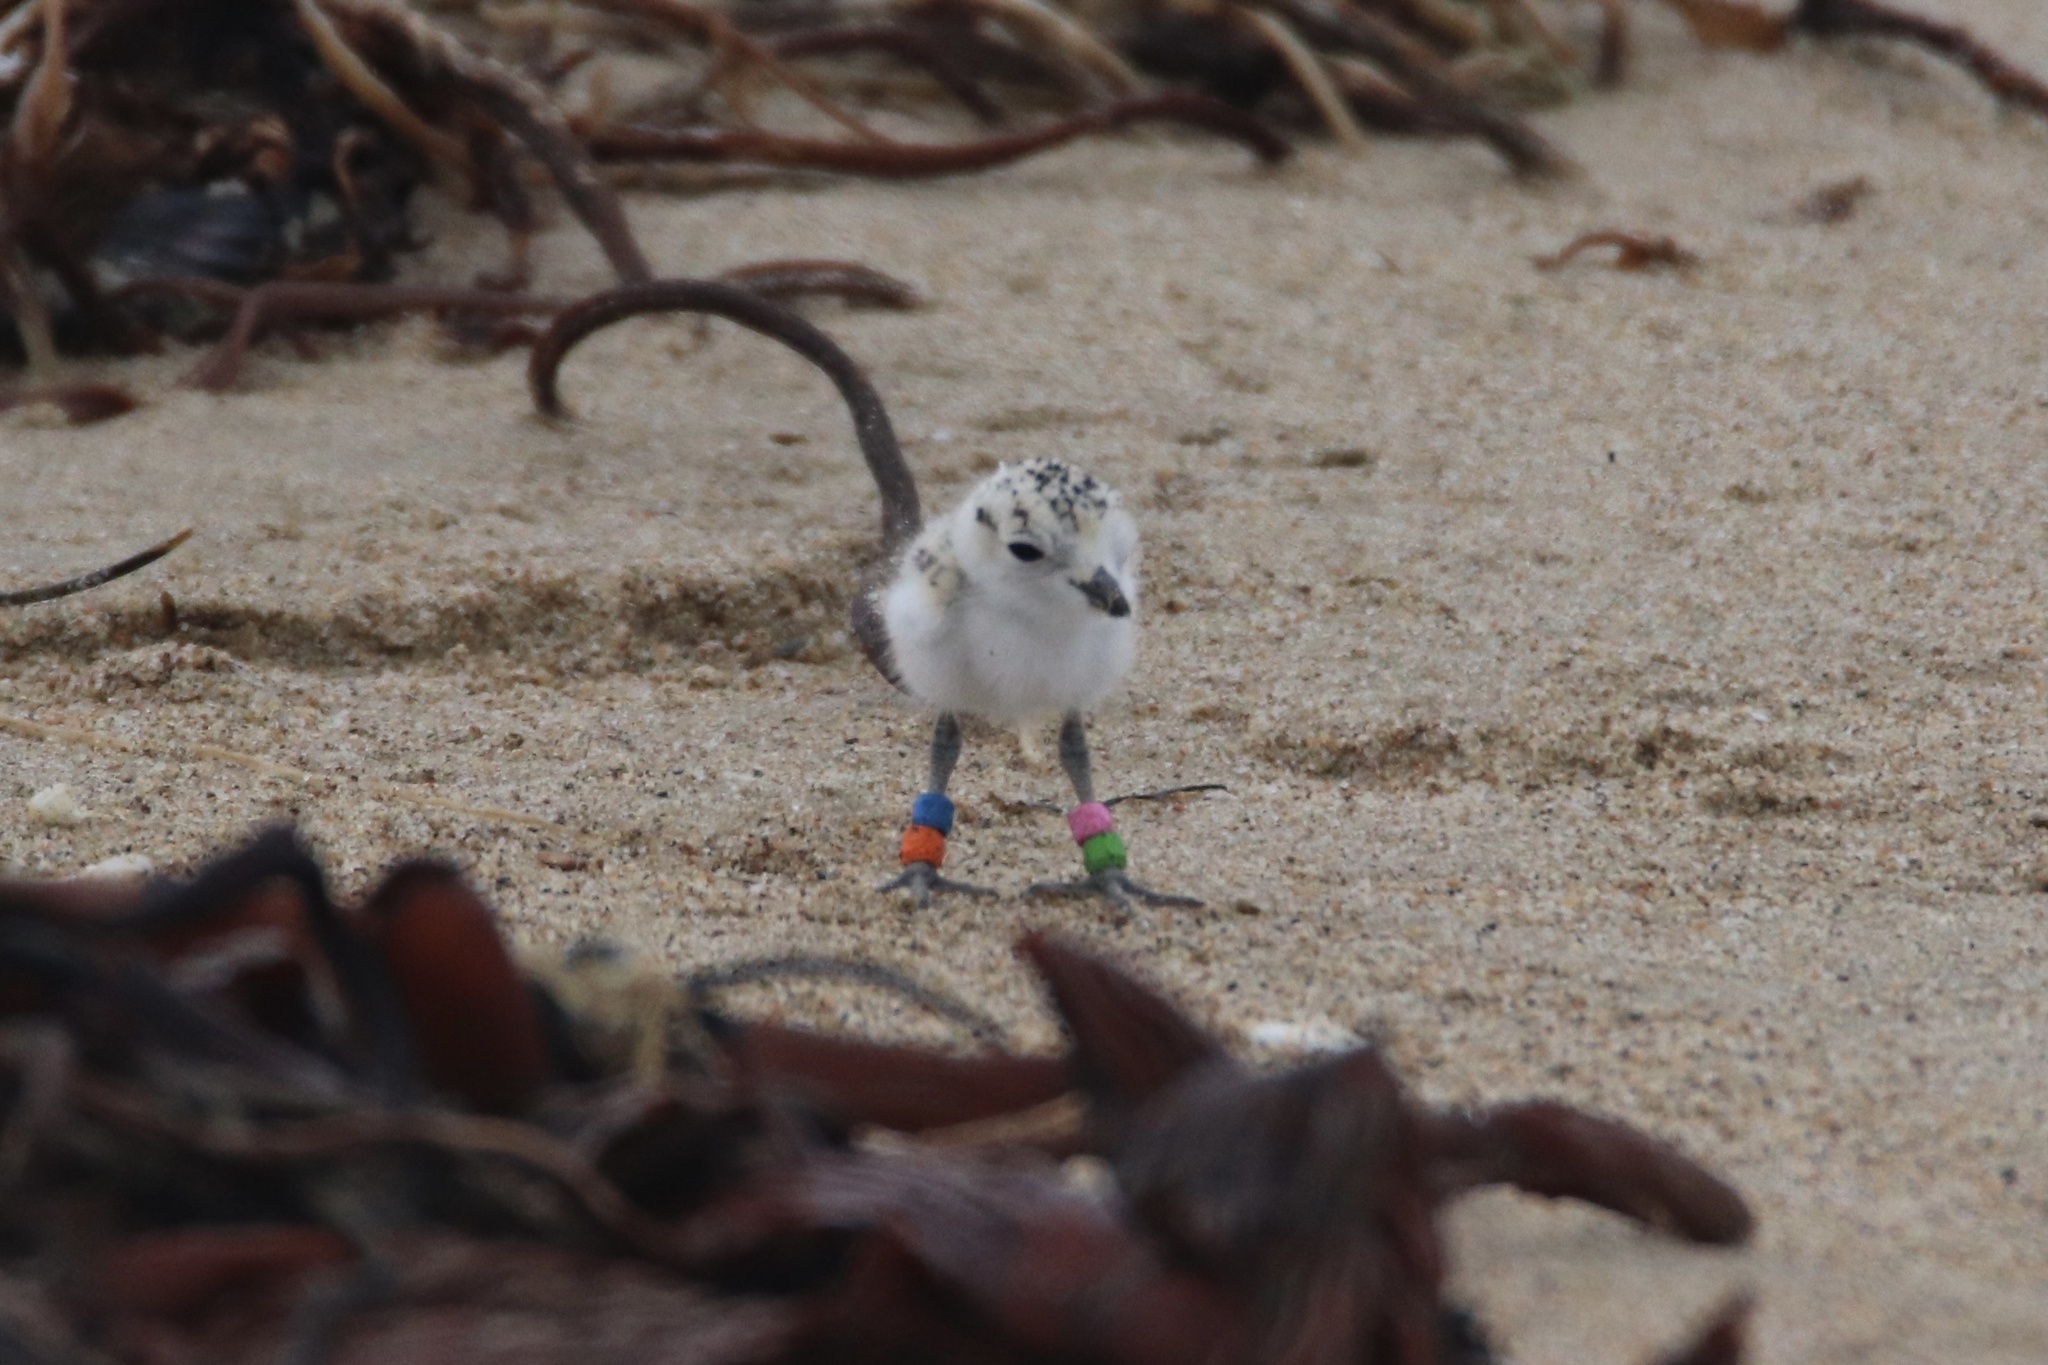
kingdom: Animalia
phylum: Chordata
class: Aves
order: Charadriiformes
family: Charadriidae
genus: Anarhynchus
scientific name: Anarhynchus
